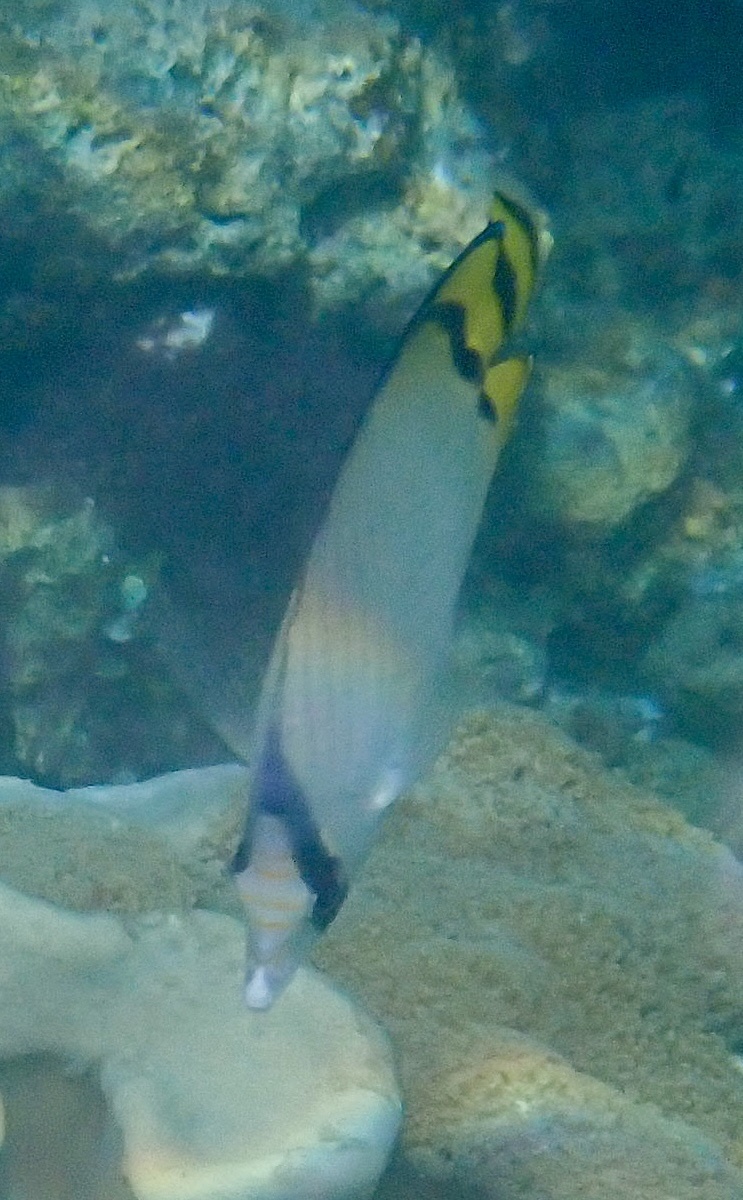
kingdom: Animalia
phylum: Chordata
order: Perciformes
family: Chaetodontidae
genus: Chaetodon
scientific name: Chaetodon vagabundus
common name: Vagabond butterflyfish
